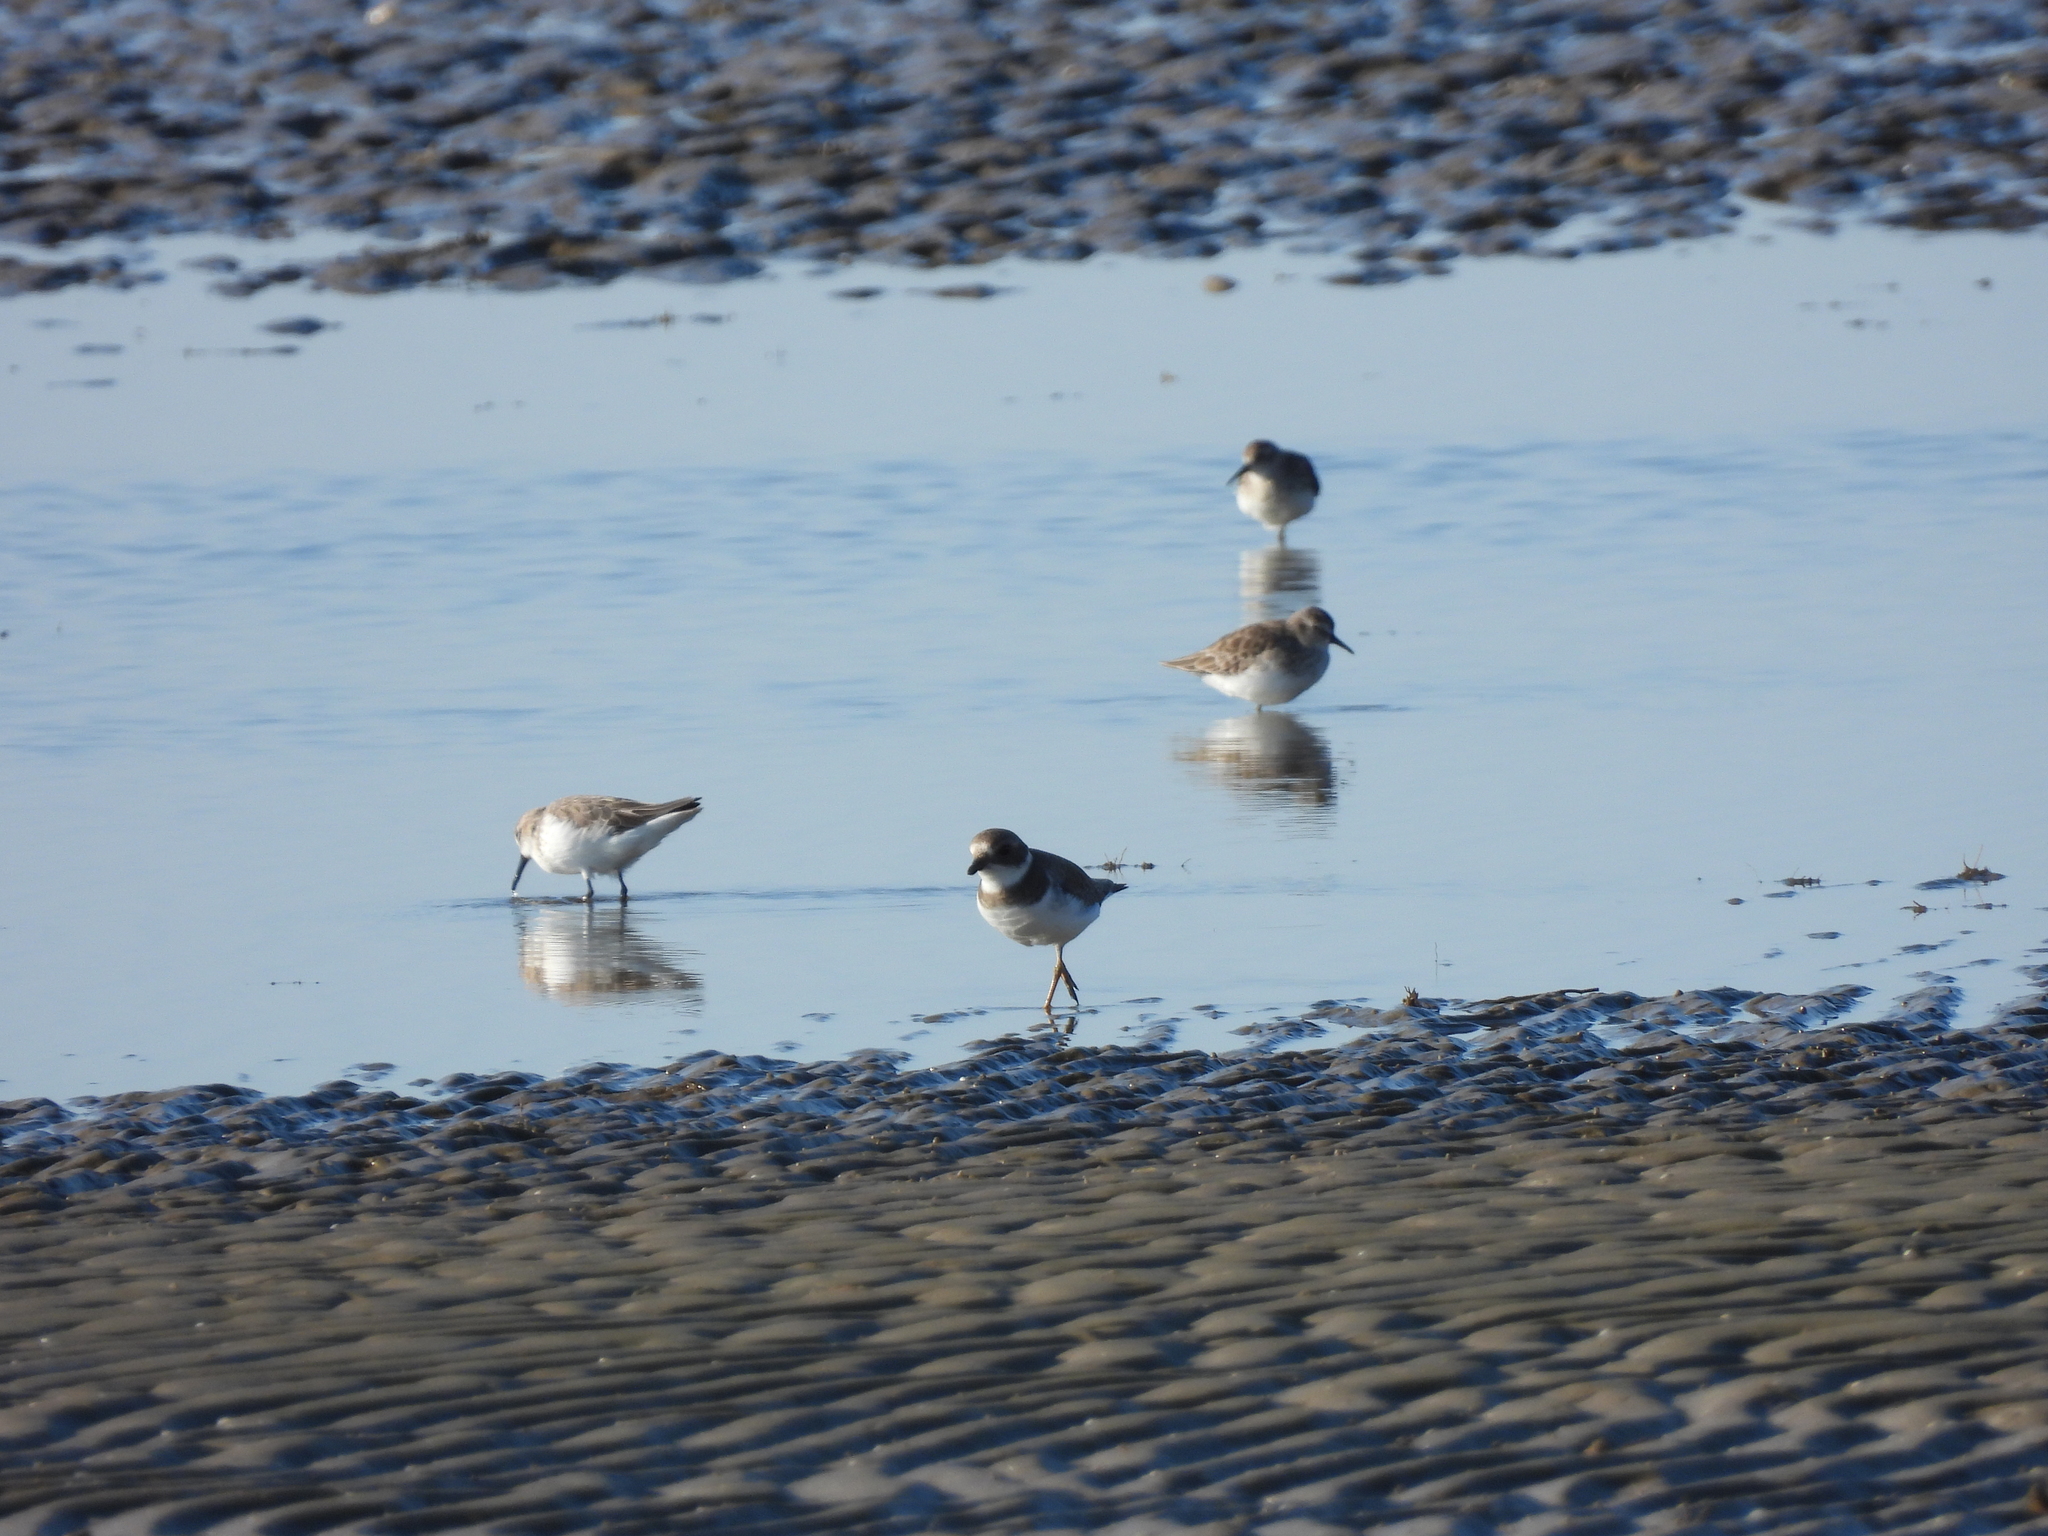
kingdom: Animalia
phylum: Chordata
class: Aves
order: Charadriiformes
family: Charadriidae
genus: Charadrius
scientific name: Charadrius semipalmatus
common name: Semipalmated plover
